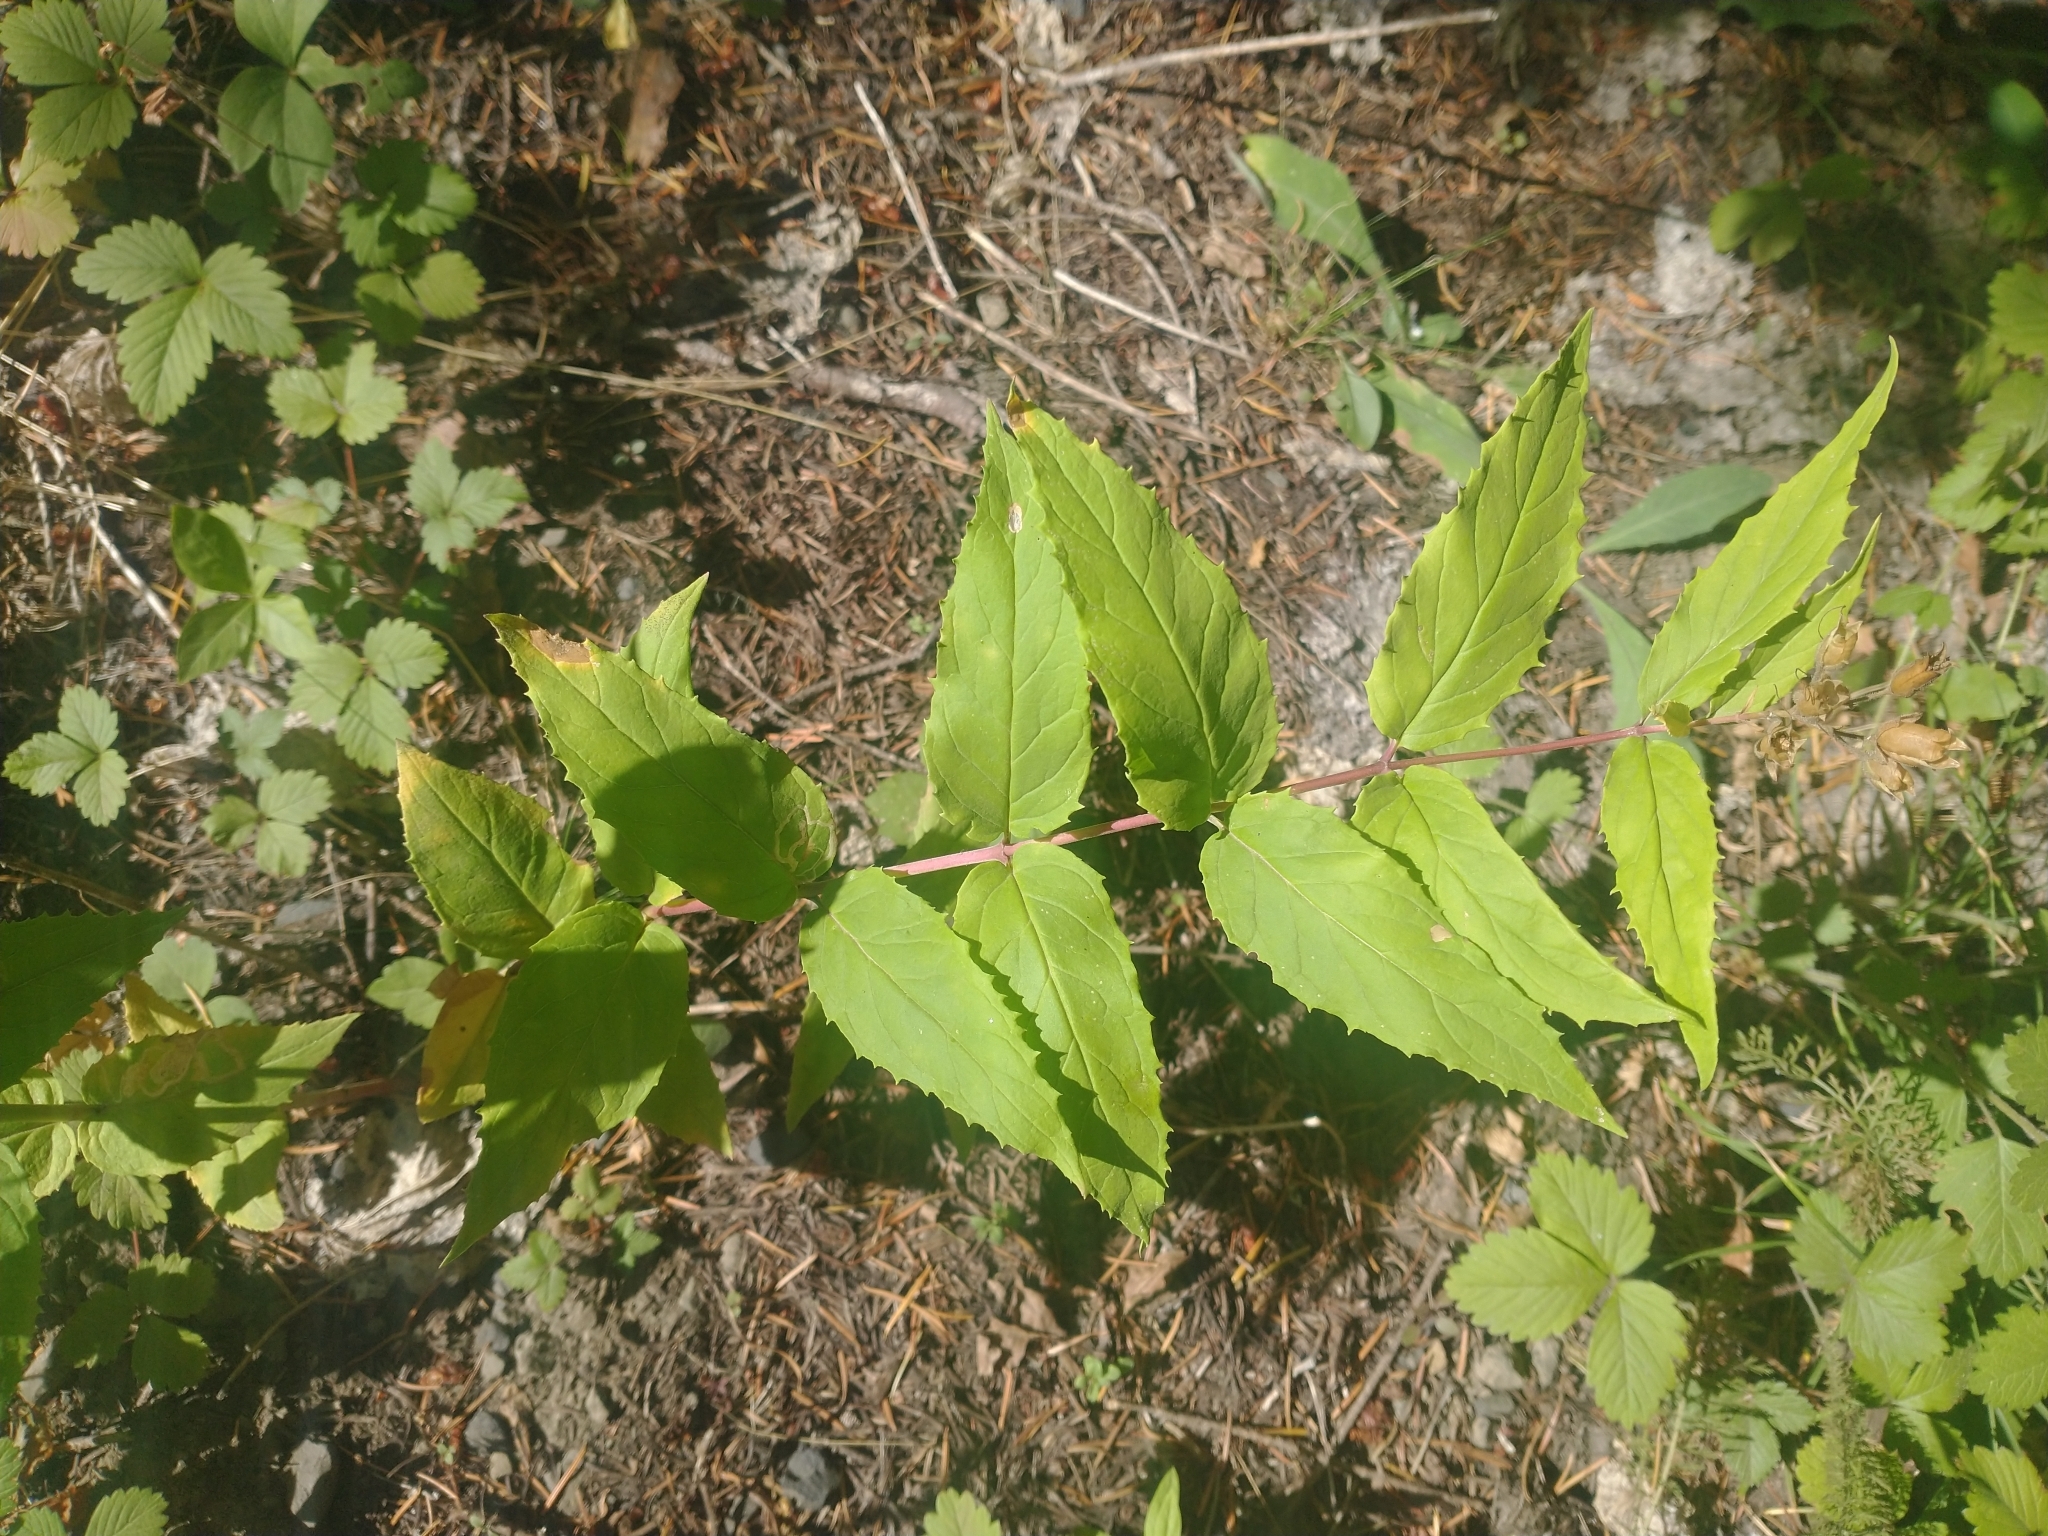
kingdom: Plantae
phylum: Tracheophyta
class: Magnoliopsida
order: Lamiales
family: Plantaginaceae
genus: Nothochelone
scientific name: Nothochelone nemorosa
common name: Woodland beardtongue
